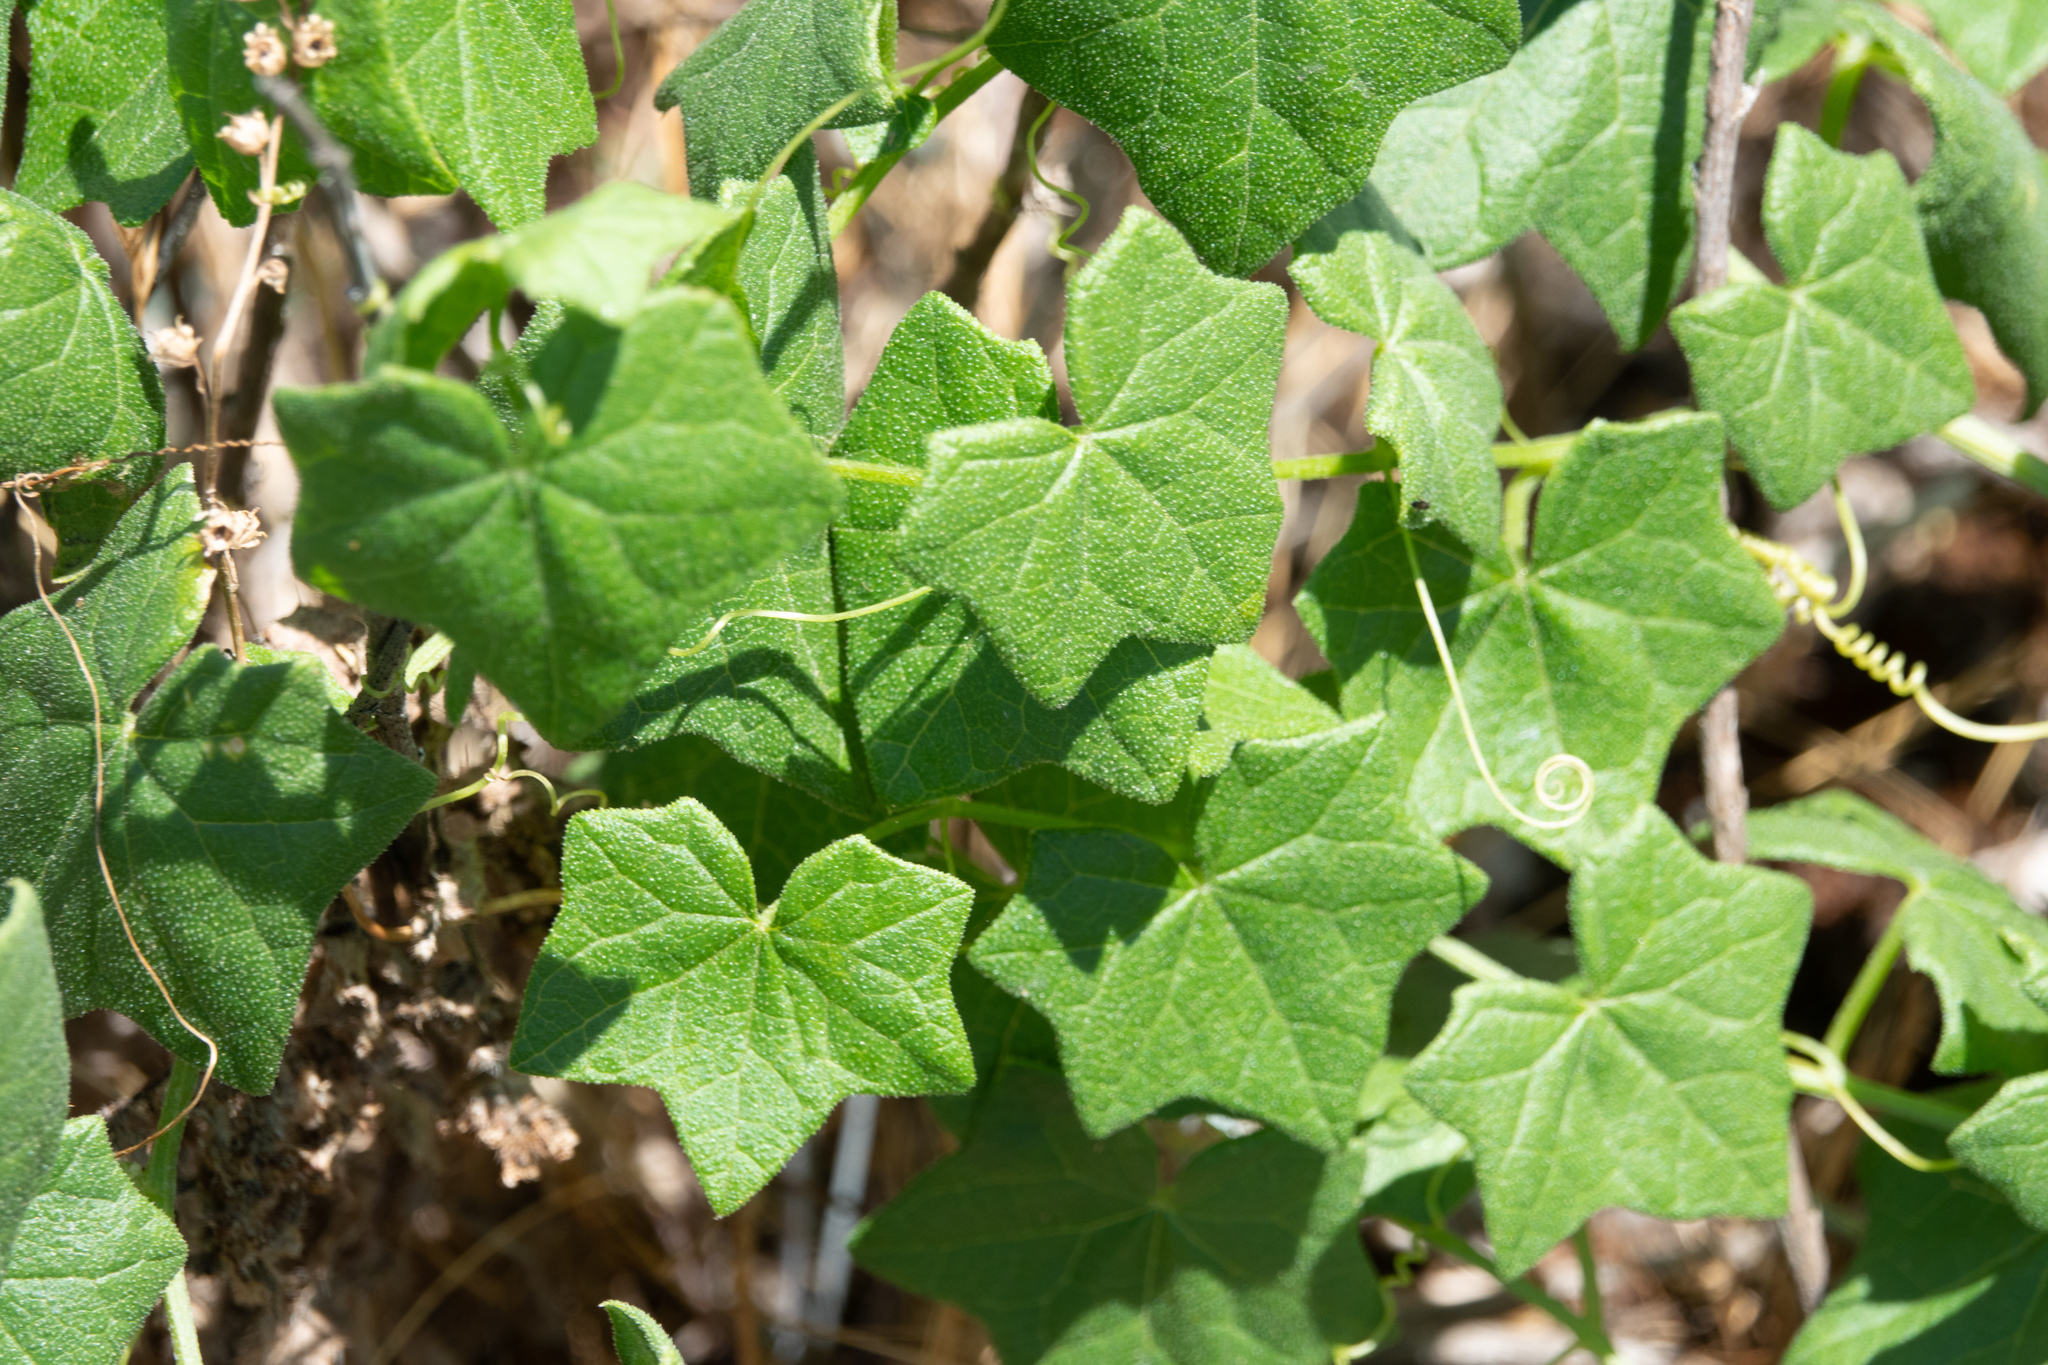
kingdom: Plantae
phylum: Tracheophyta
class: Magnoliopsida
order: Cucurbitales
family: Cucurbitaceae
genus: Marah
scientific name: Marah fabacea
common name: California manroot
